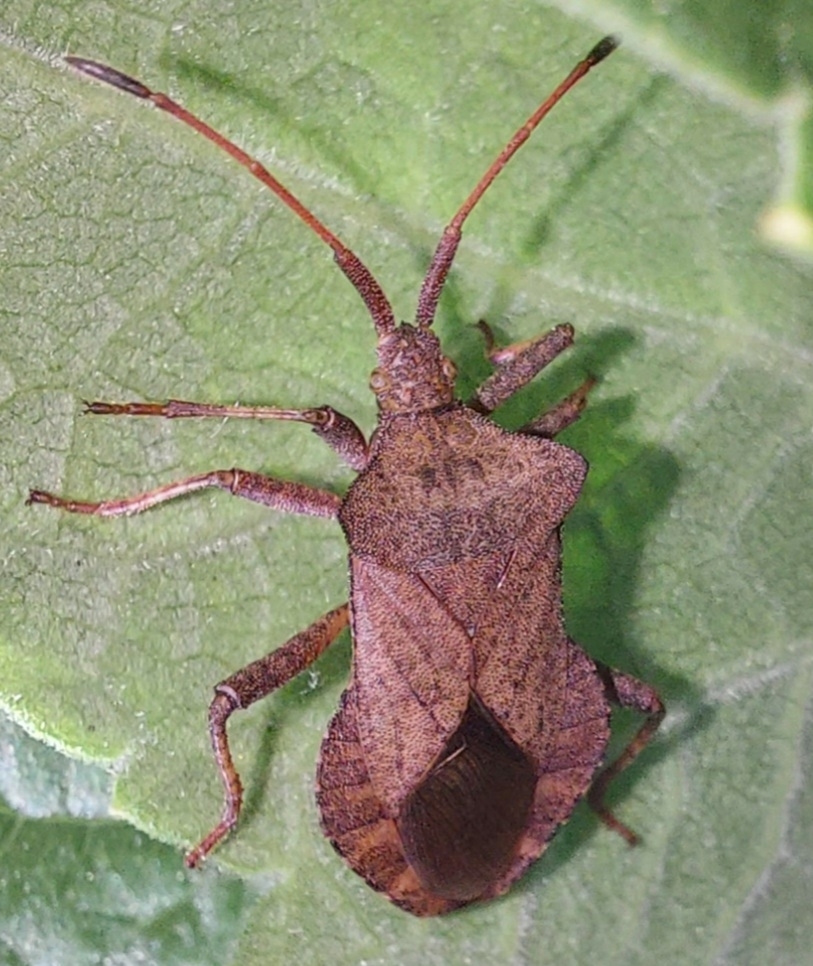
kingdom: Animalia
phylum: Arthropoda
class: Insecta
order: Hemiptera
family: Coreidae
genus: Coreus
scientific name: Coreus marginatus
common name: Dock bug
